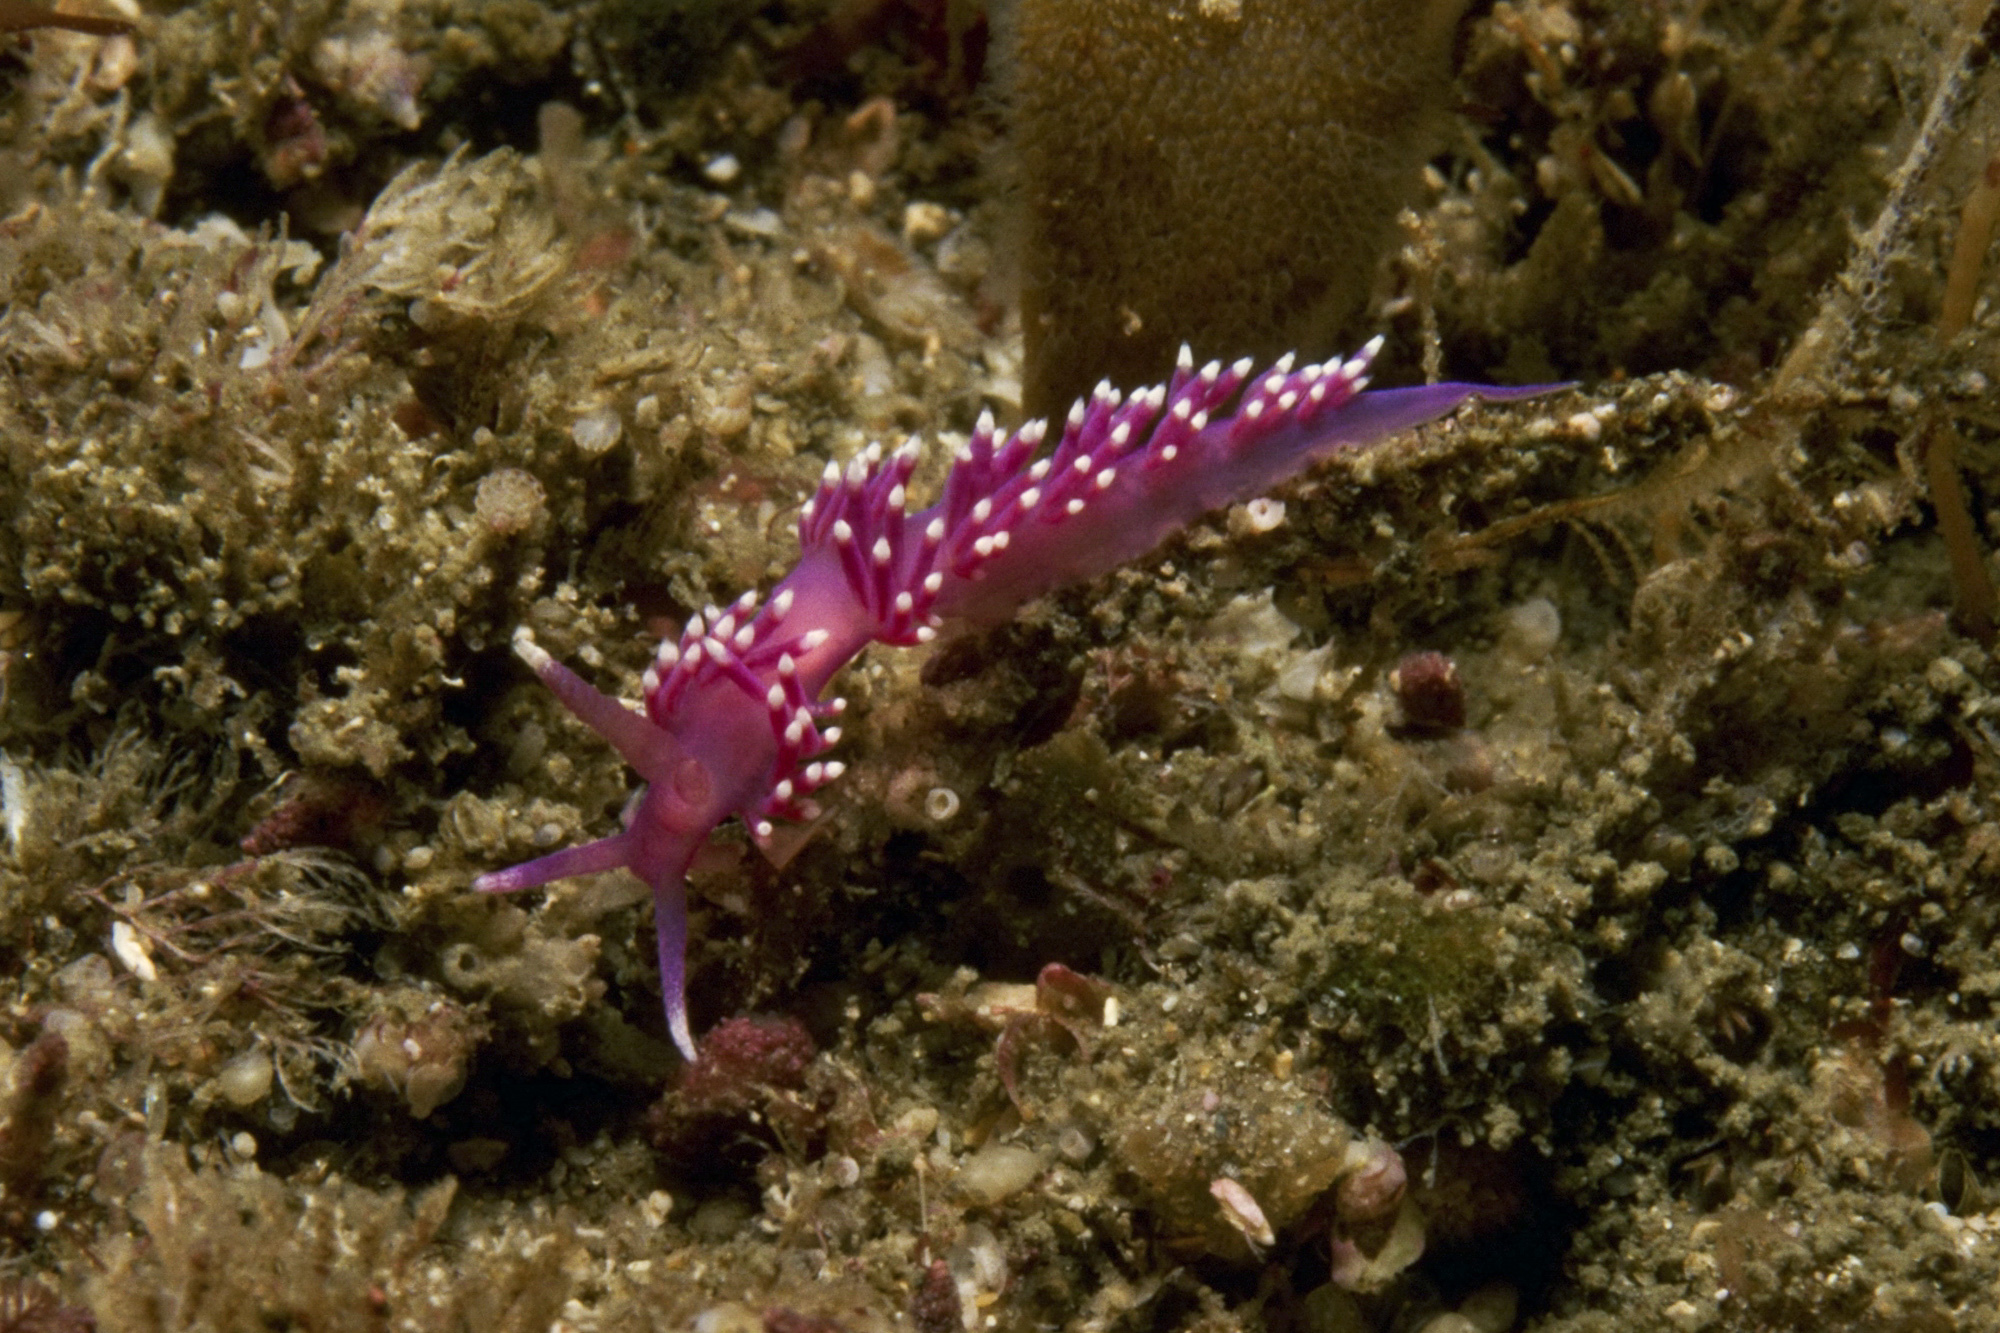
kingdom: Animalia
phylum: Mollusca
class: Gastropoda
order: Nudibranchia
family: Flabellinidae
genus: Edmundsella
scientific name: Edmundsella pedata
